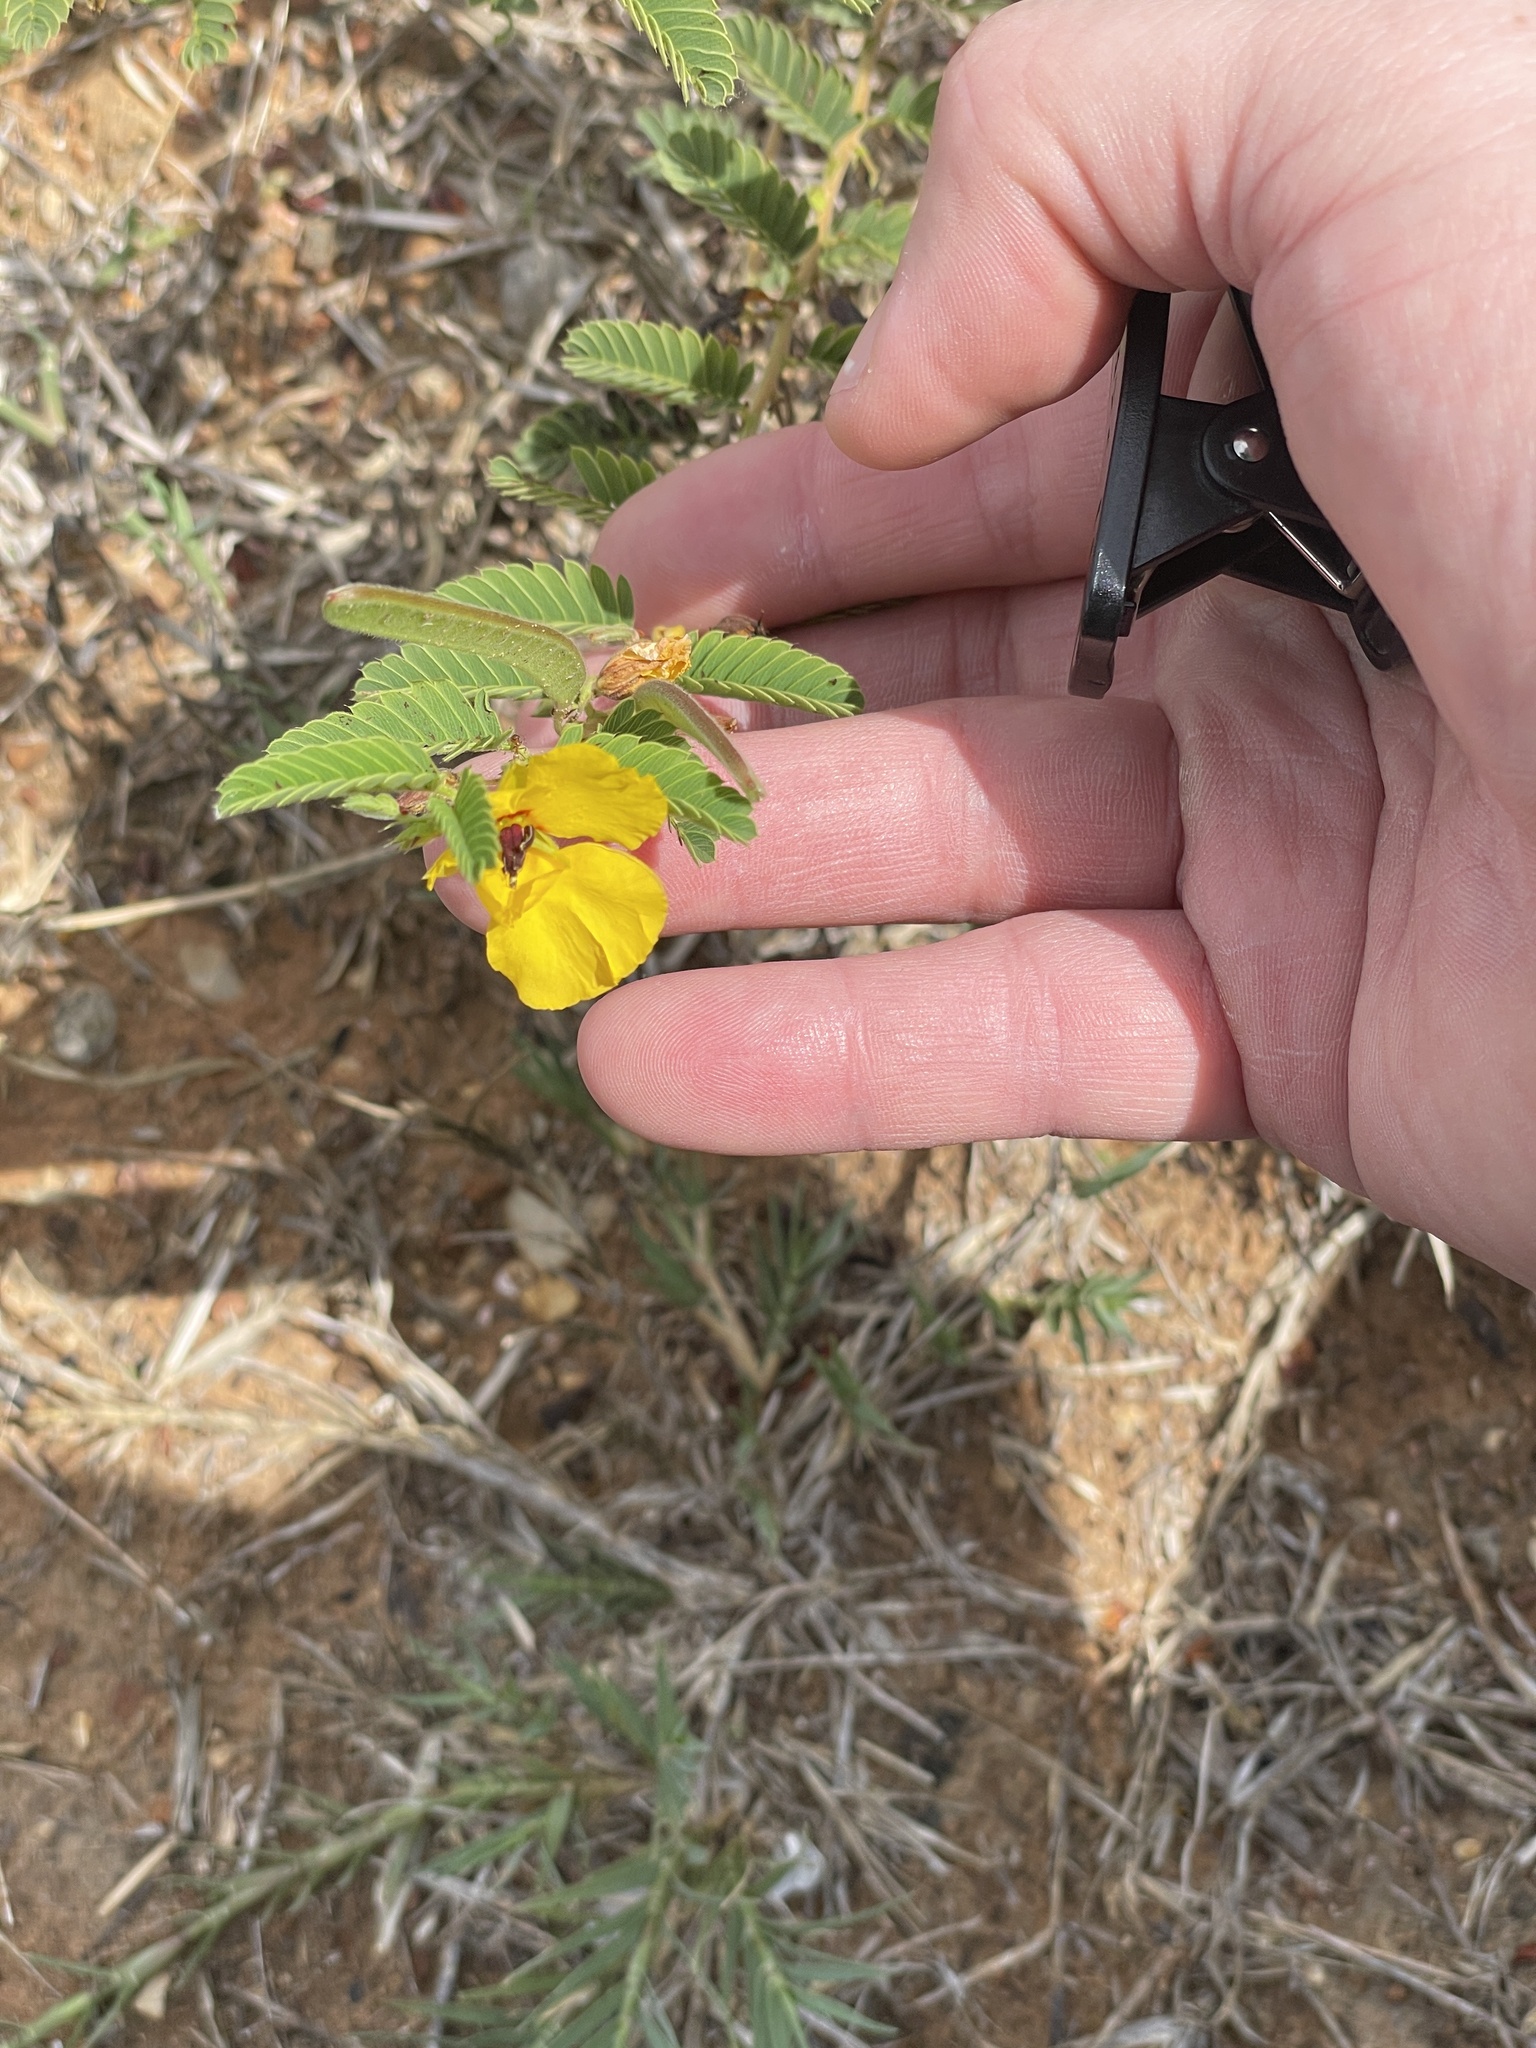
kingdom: Plantae
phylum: Tracheophyta
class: Magnoliopsida
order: Fabales
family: Fabaceae
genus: Chamaecrista
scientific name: Chamaecrista fasciculata
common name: Golden cassia
